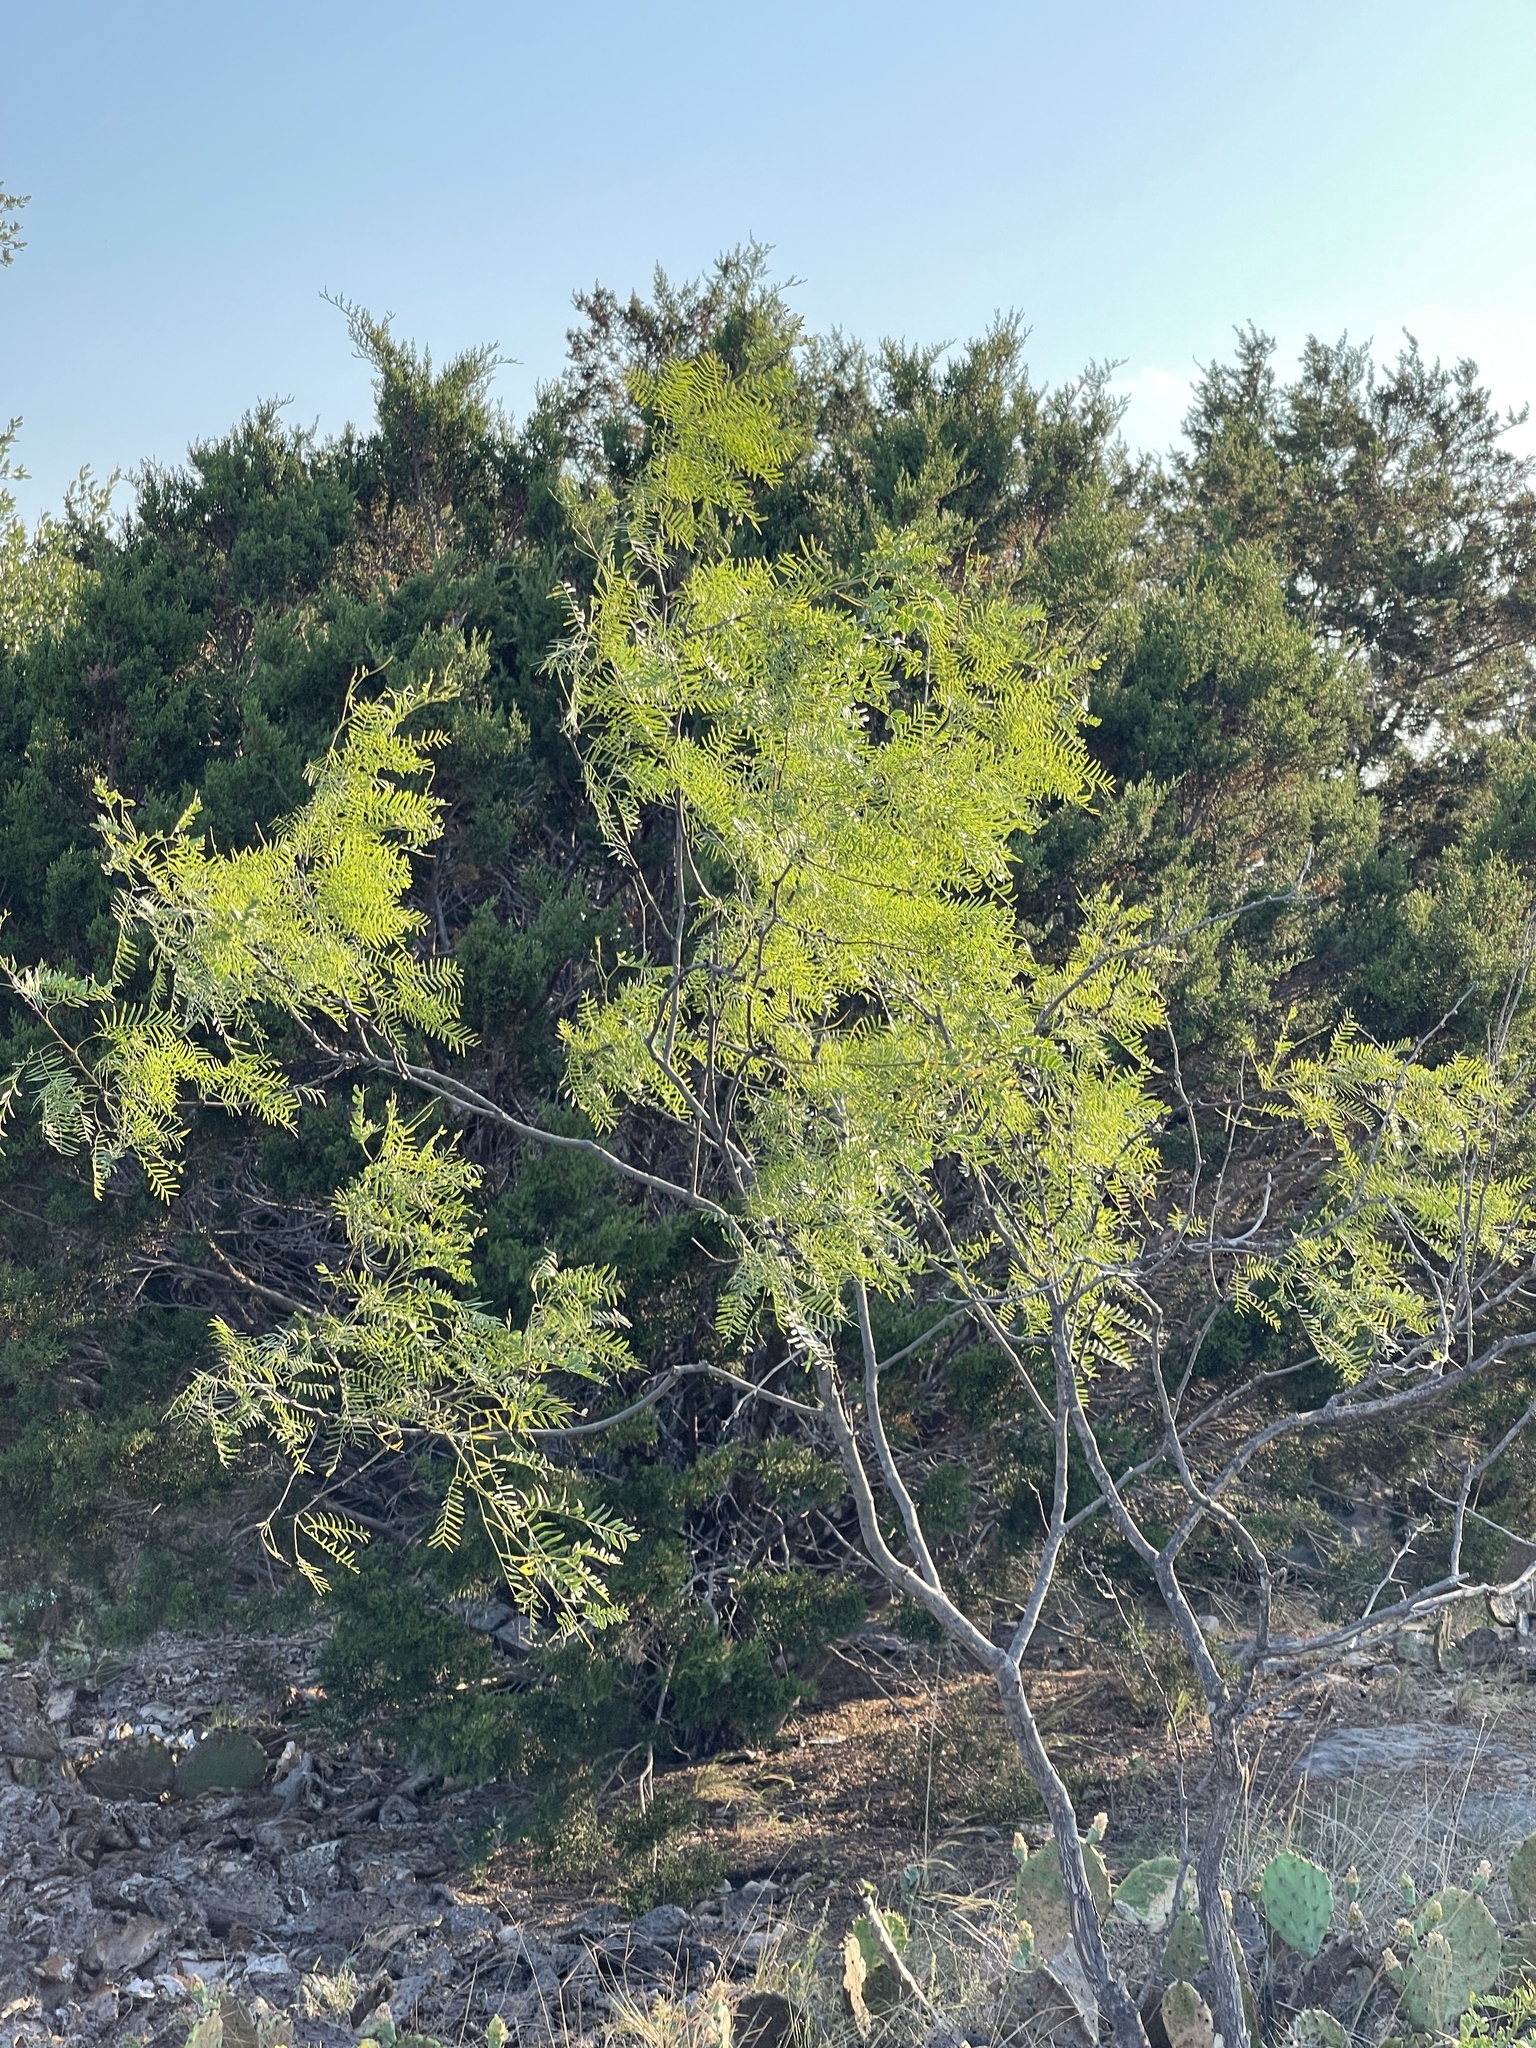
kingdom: Plantae
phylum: Tracheophyta
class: Magnoliopsida
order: Fabales
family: Fabaceae
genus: Prosopis
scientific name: Prosopis glandulosa
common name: Honey mesquite
